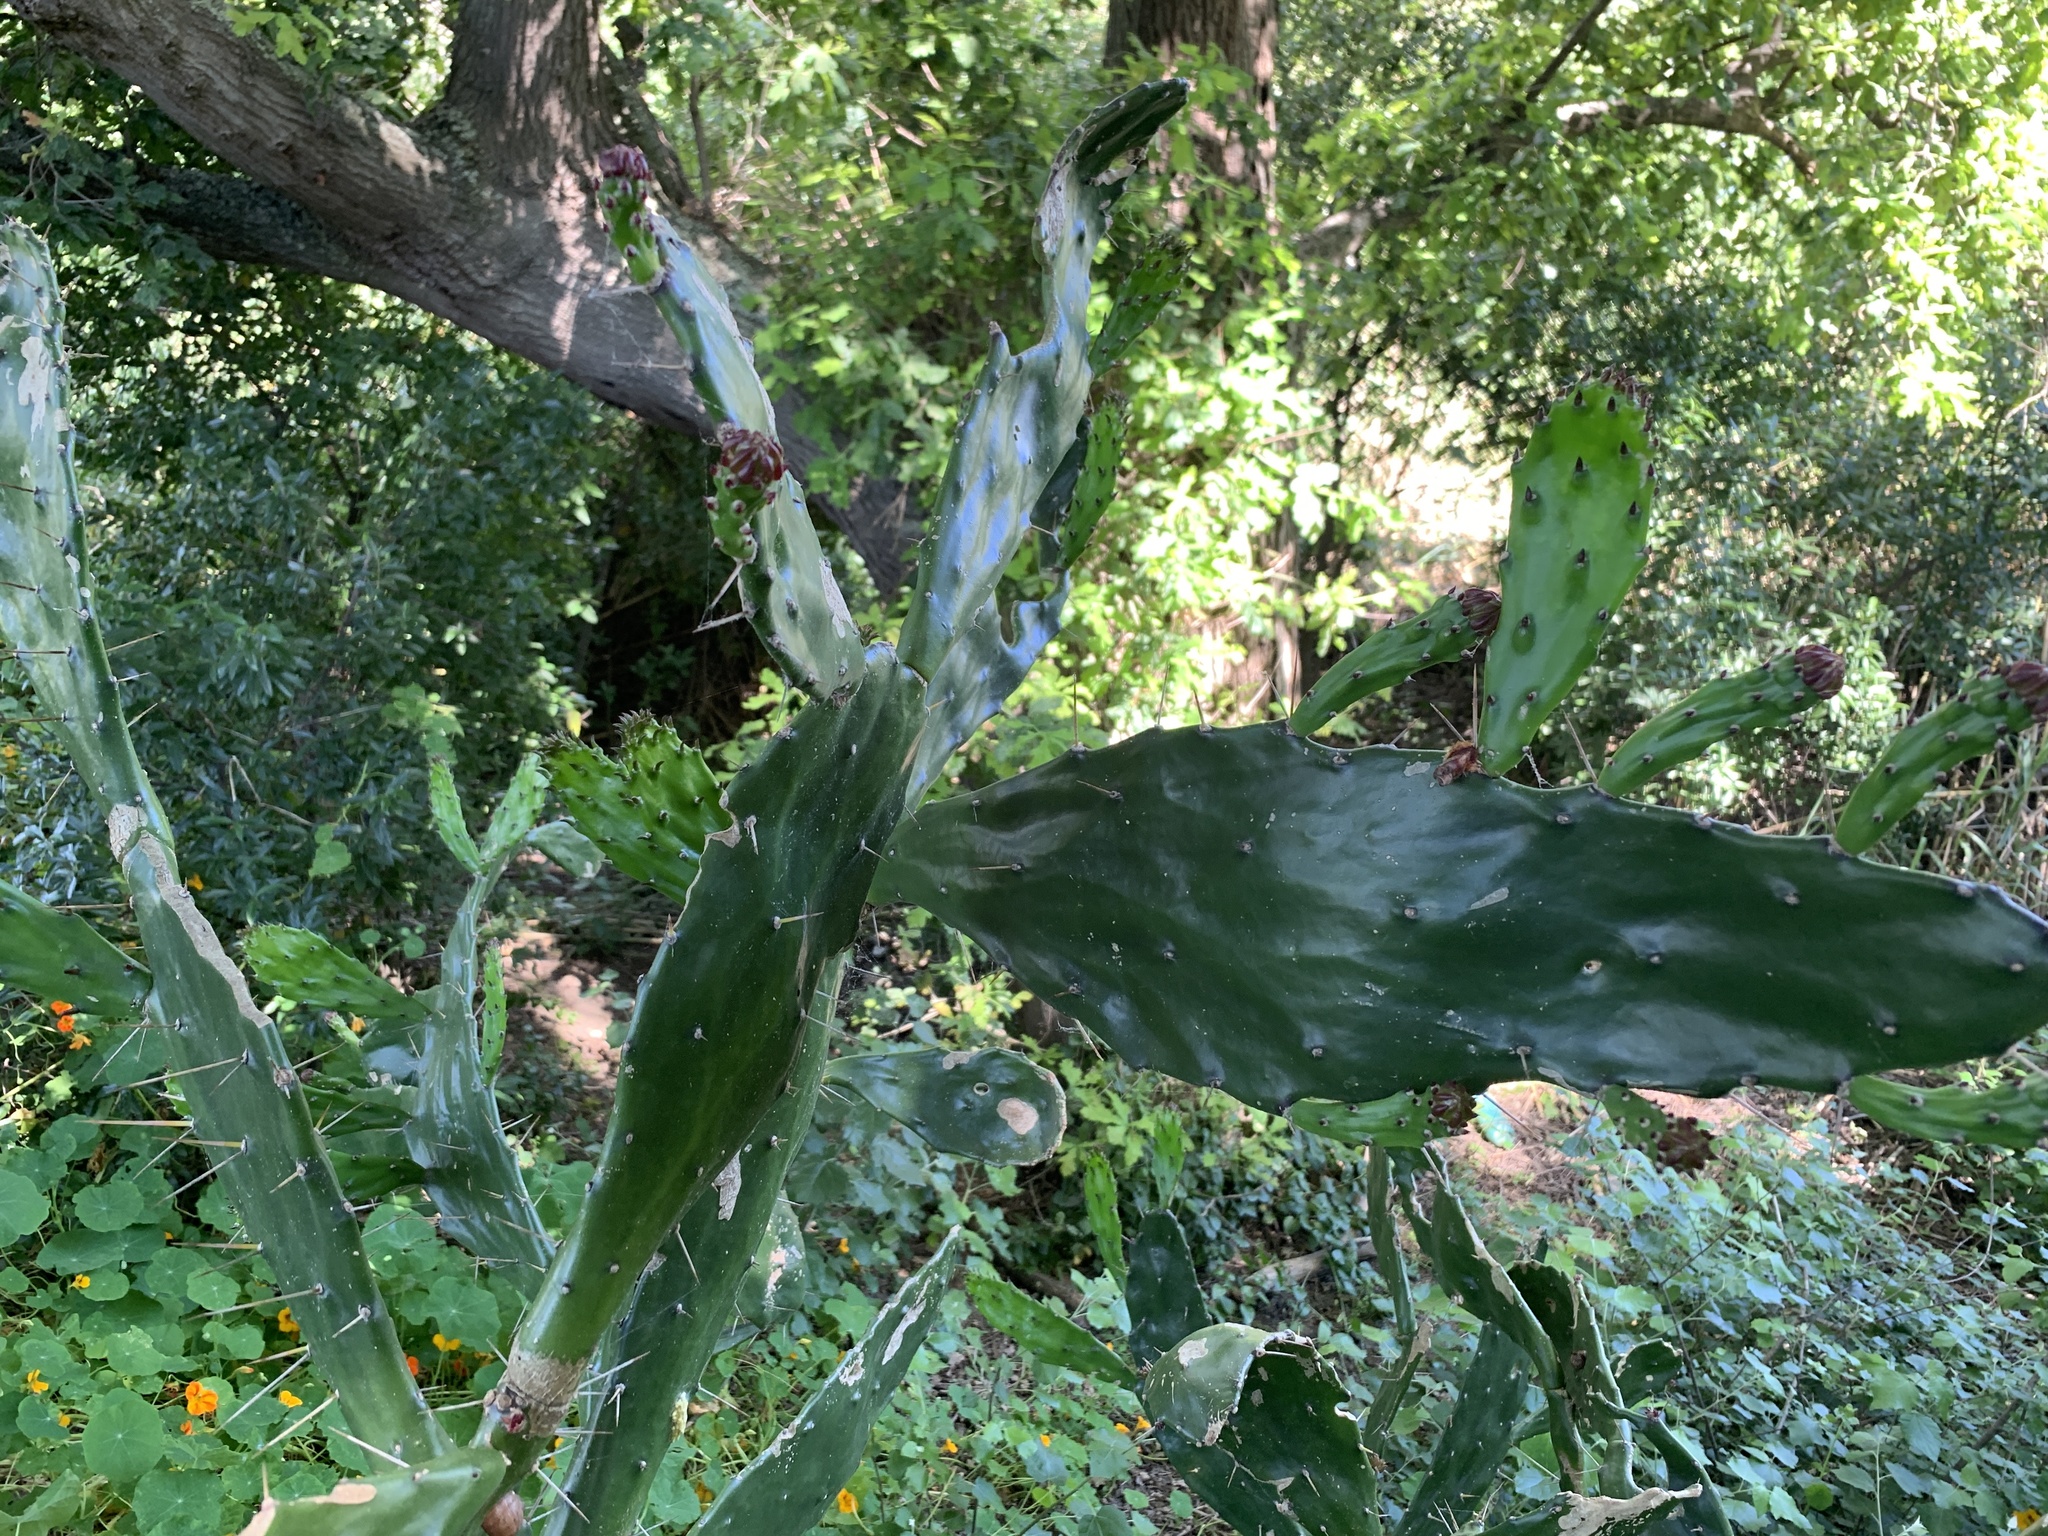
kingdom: Plantae
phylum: Tracheophyta
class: Magnoliopsida
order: Caryophyllales
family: Cactaceae
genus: Opuntia
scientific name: Opuntia monacantha
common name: Common pricklypear
